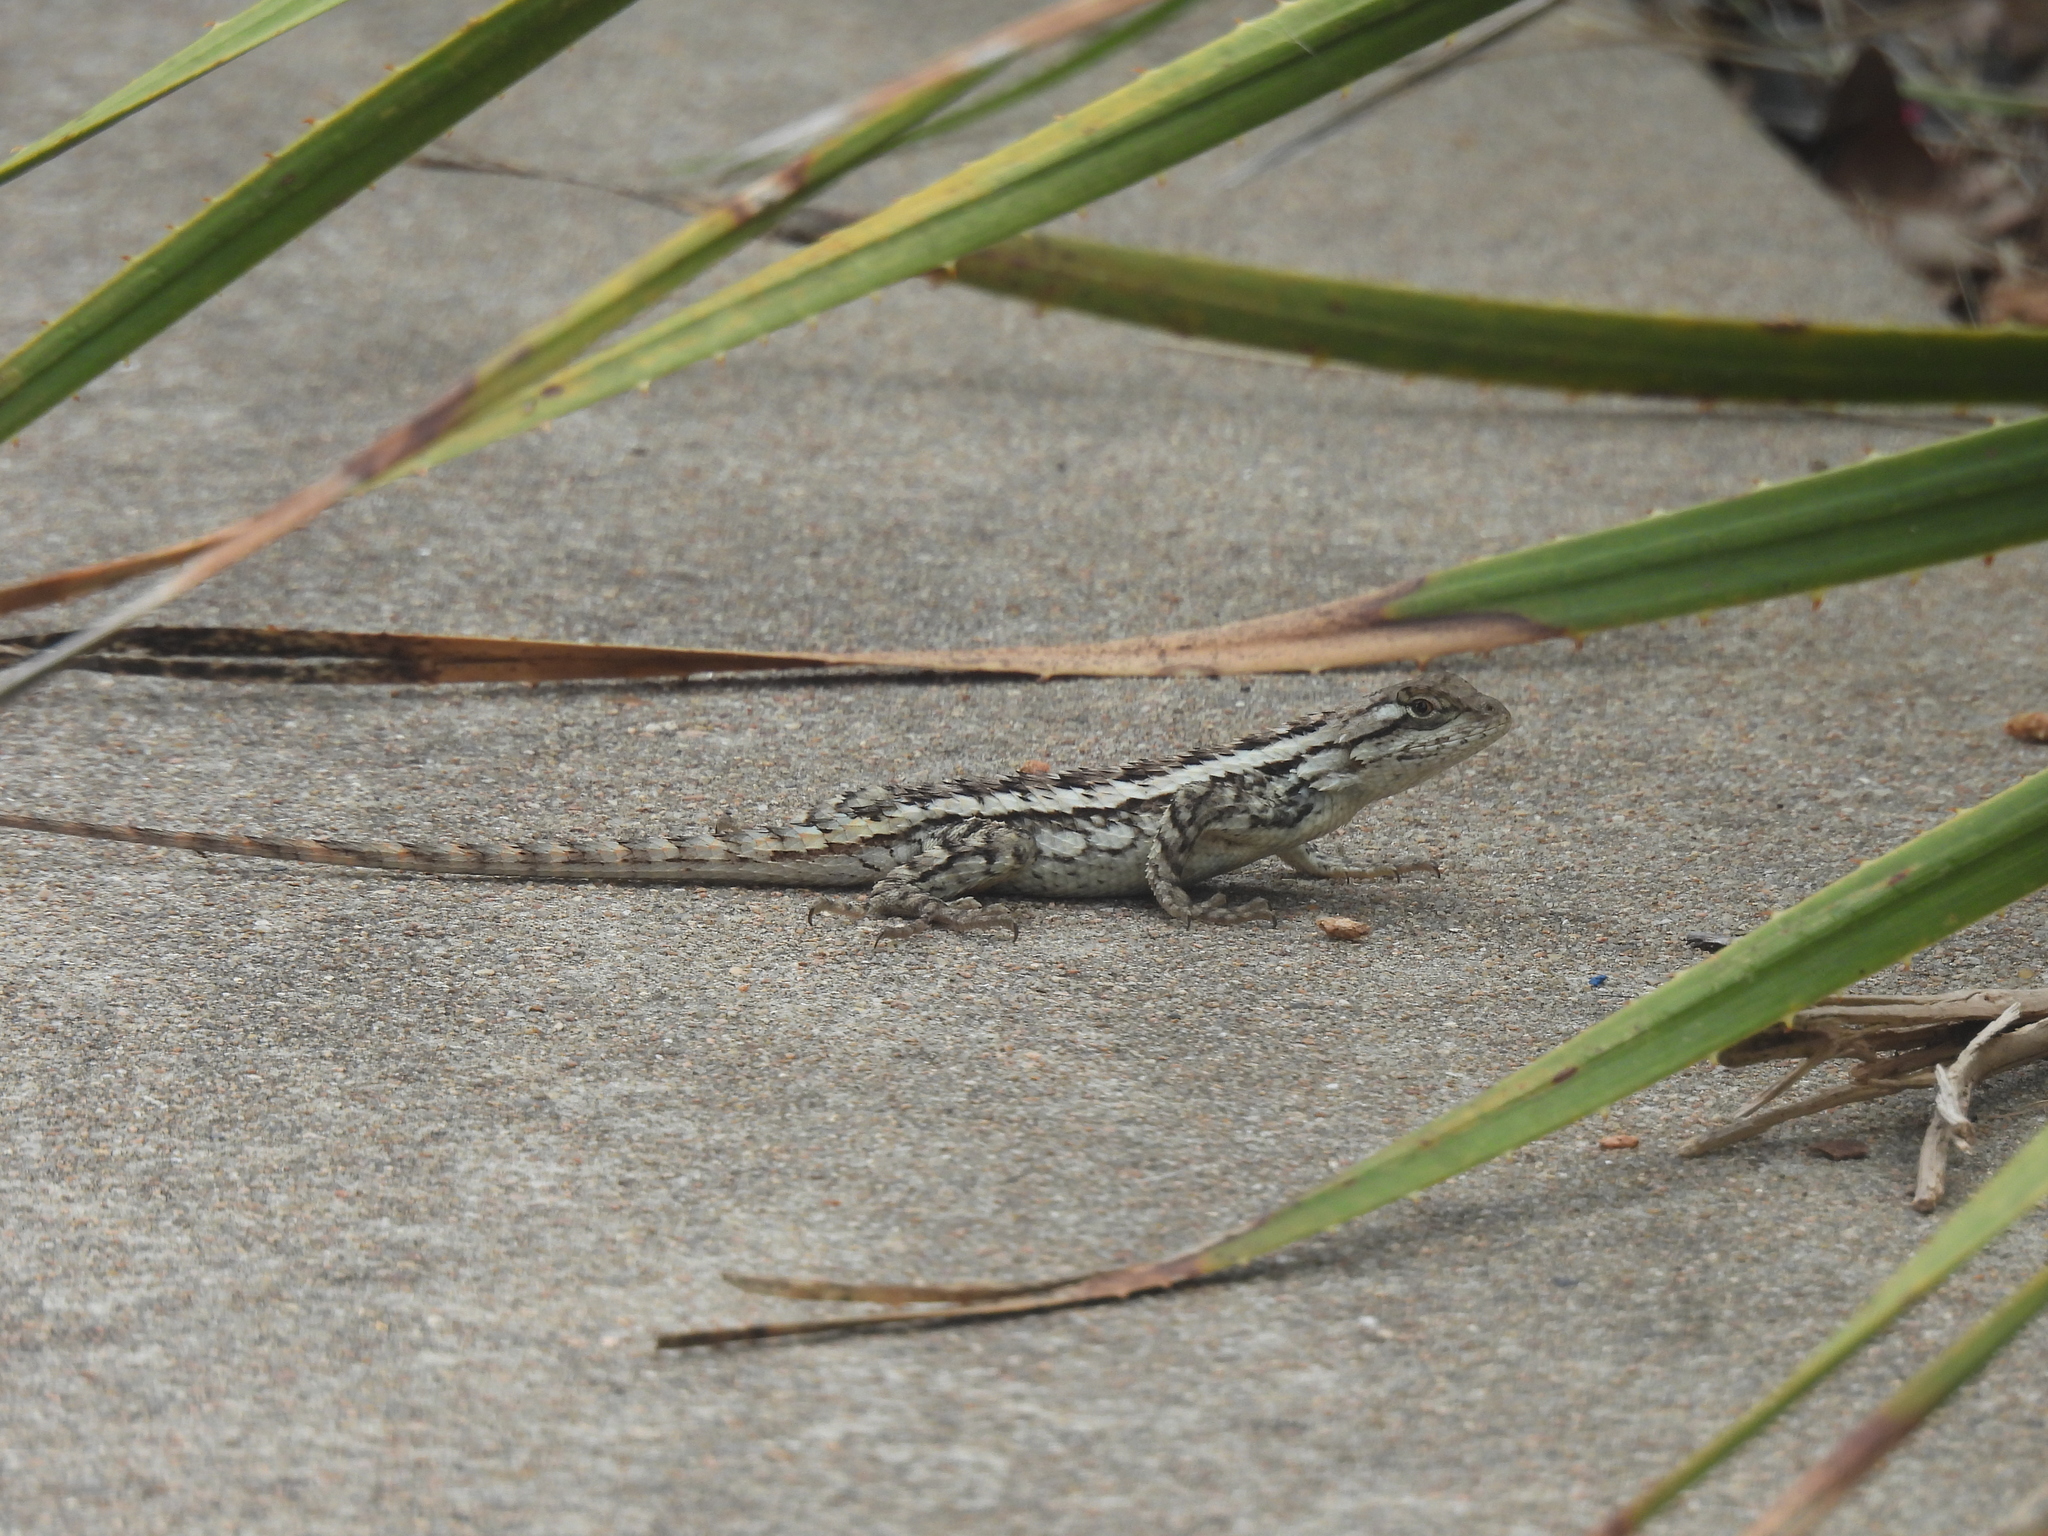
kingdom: Animalia
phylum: Chordata
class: Squamata
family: Phrynosomatidae
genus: Sceloporus
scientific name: Sceloporus olivaceus
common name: Texas spiny lizard
